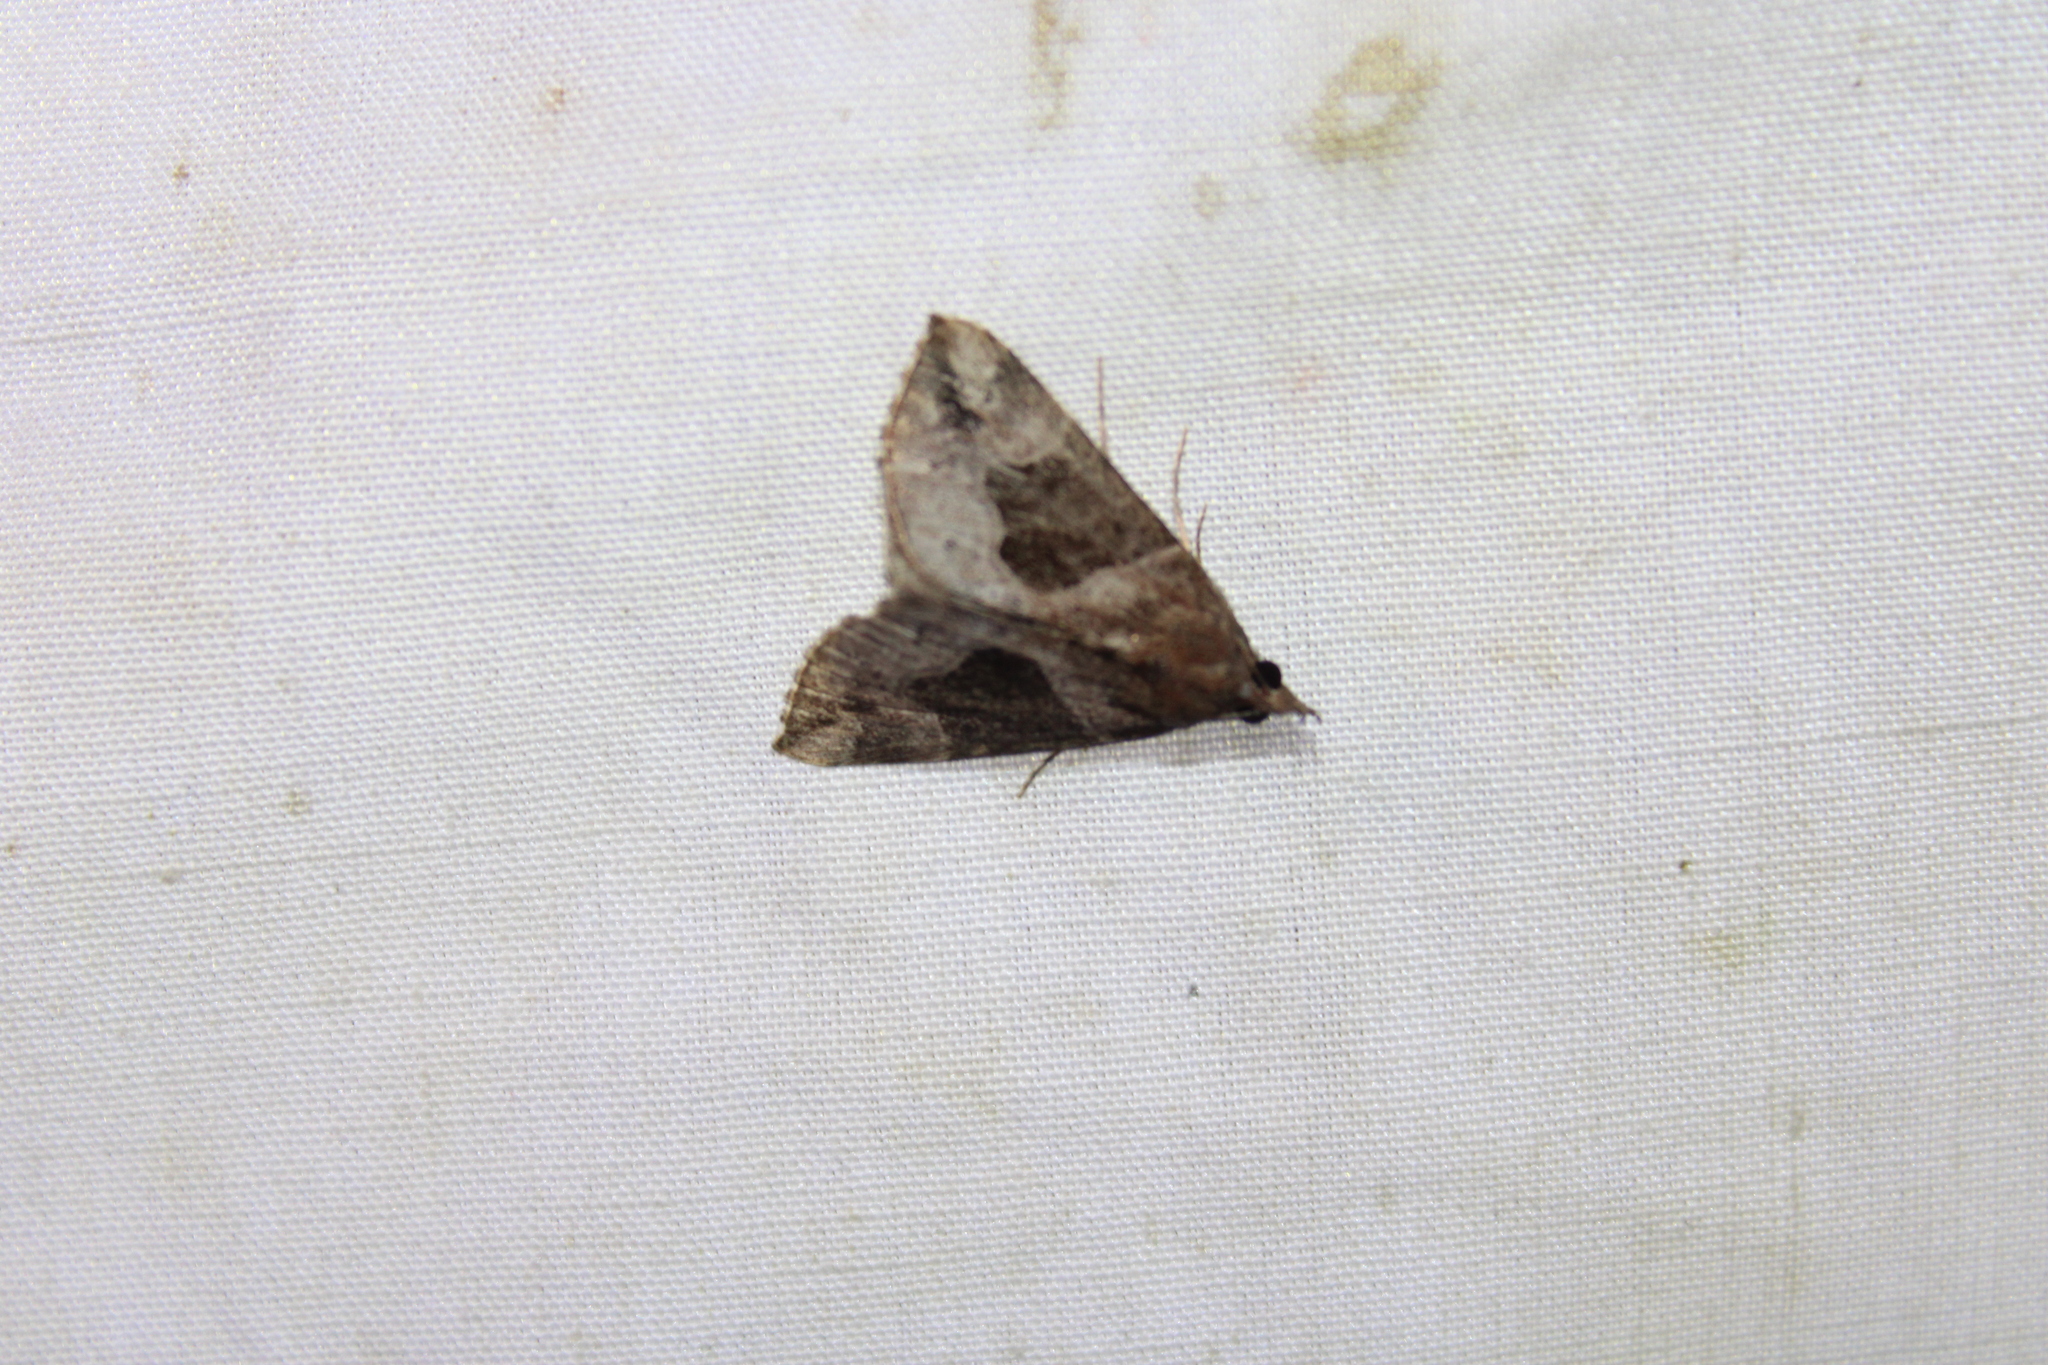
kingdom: Animalia
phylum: Arthropoda
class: Insecta
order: Lepidoptera
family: Erebidae
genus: Hypena
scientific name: Hypena manalis
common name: Flowing-line bomolocha moth
